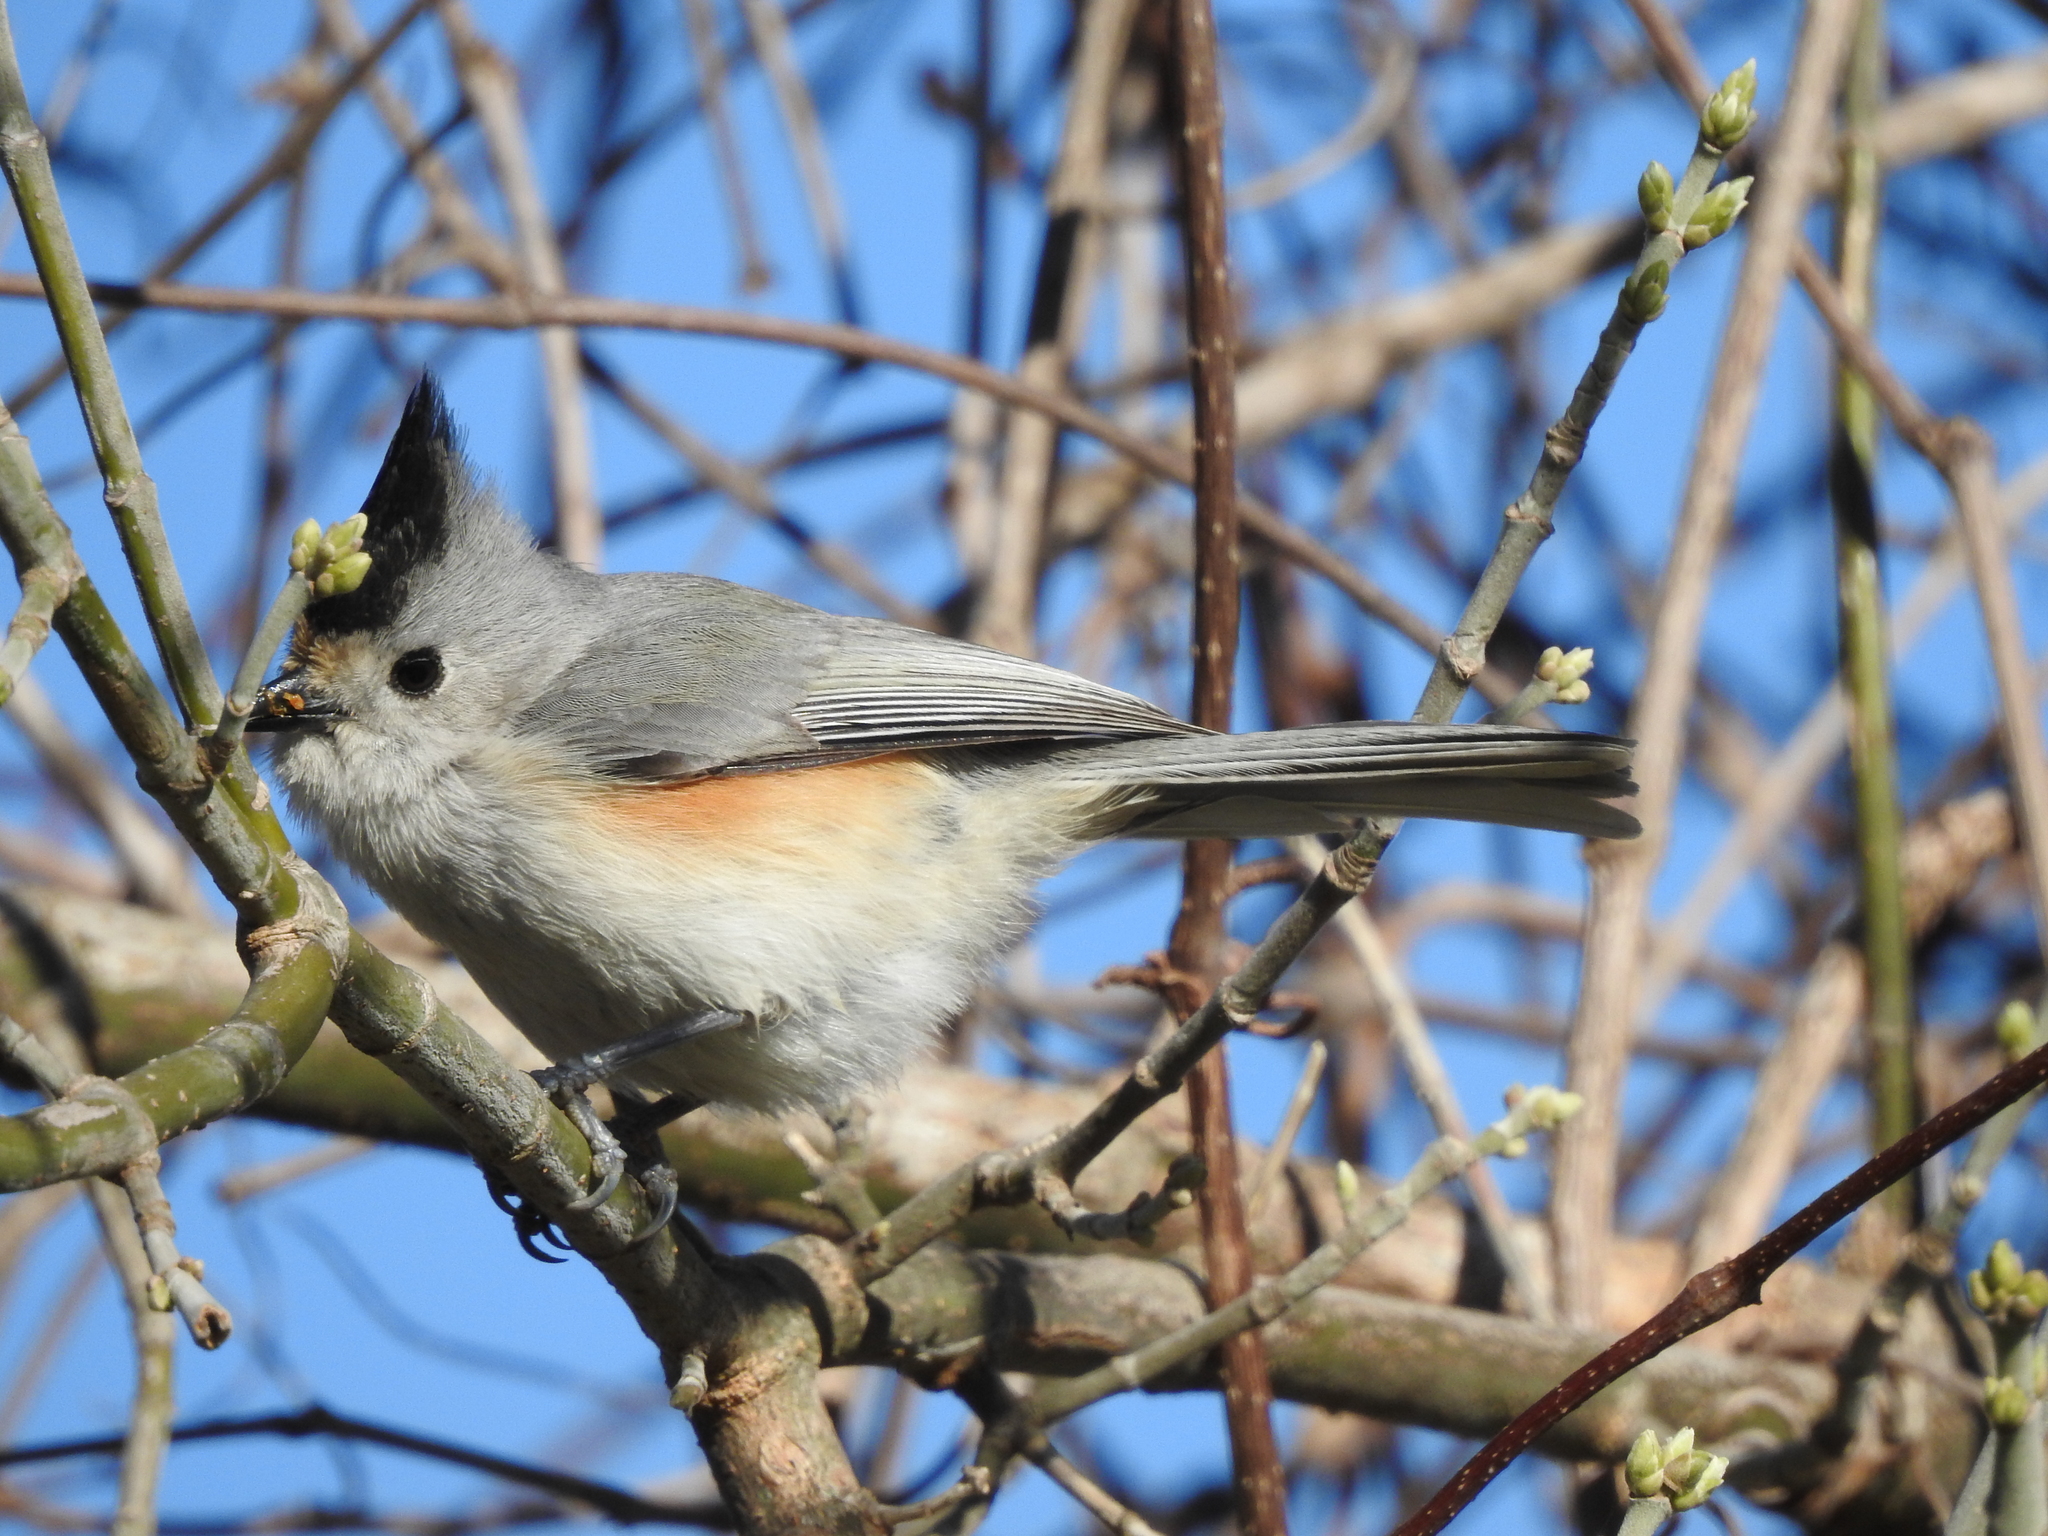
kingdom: Animalia
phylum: Chordata
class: Aves
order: Passeriformes
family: Paridae
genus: Baeolophus
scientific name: Baeolophus atricristatus
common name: Black-crested titmouse
